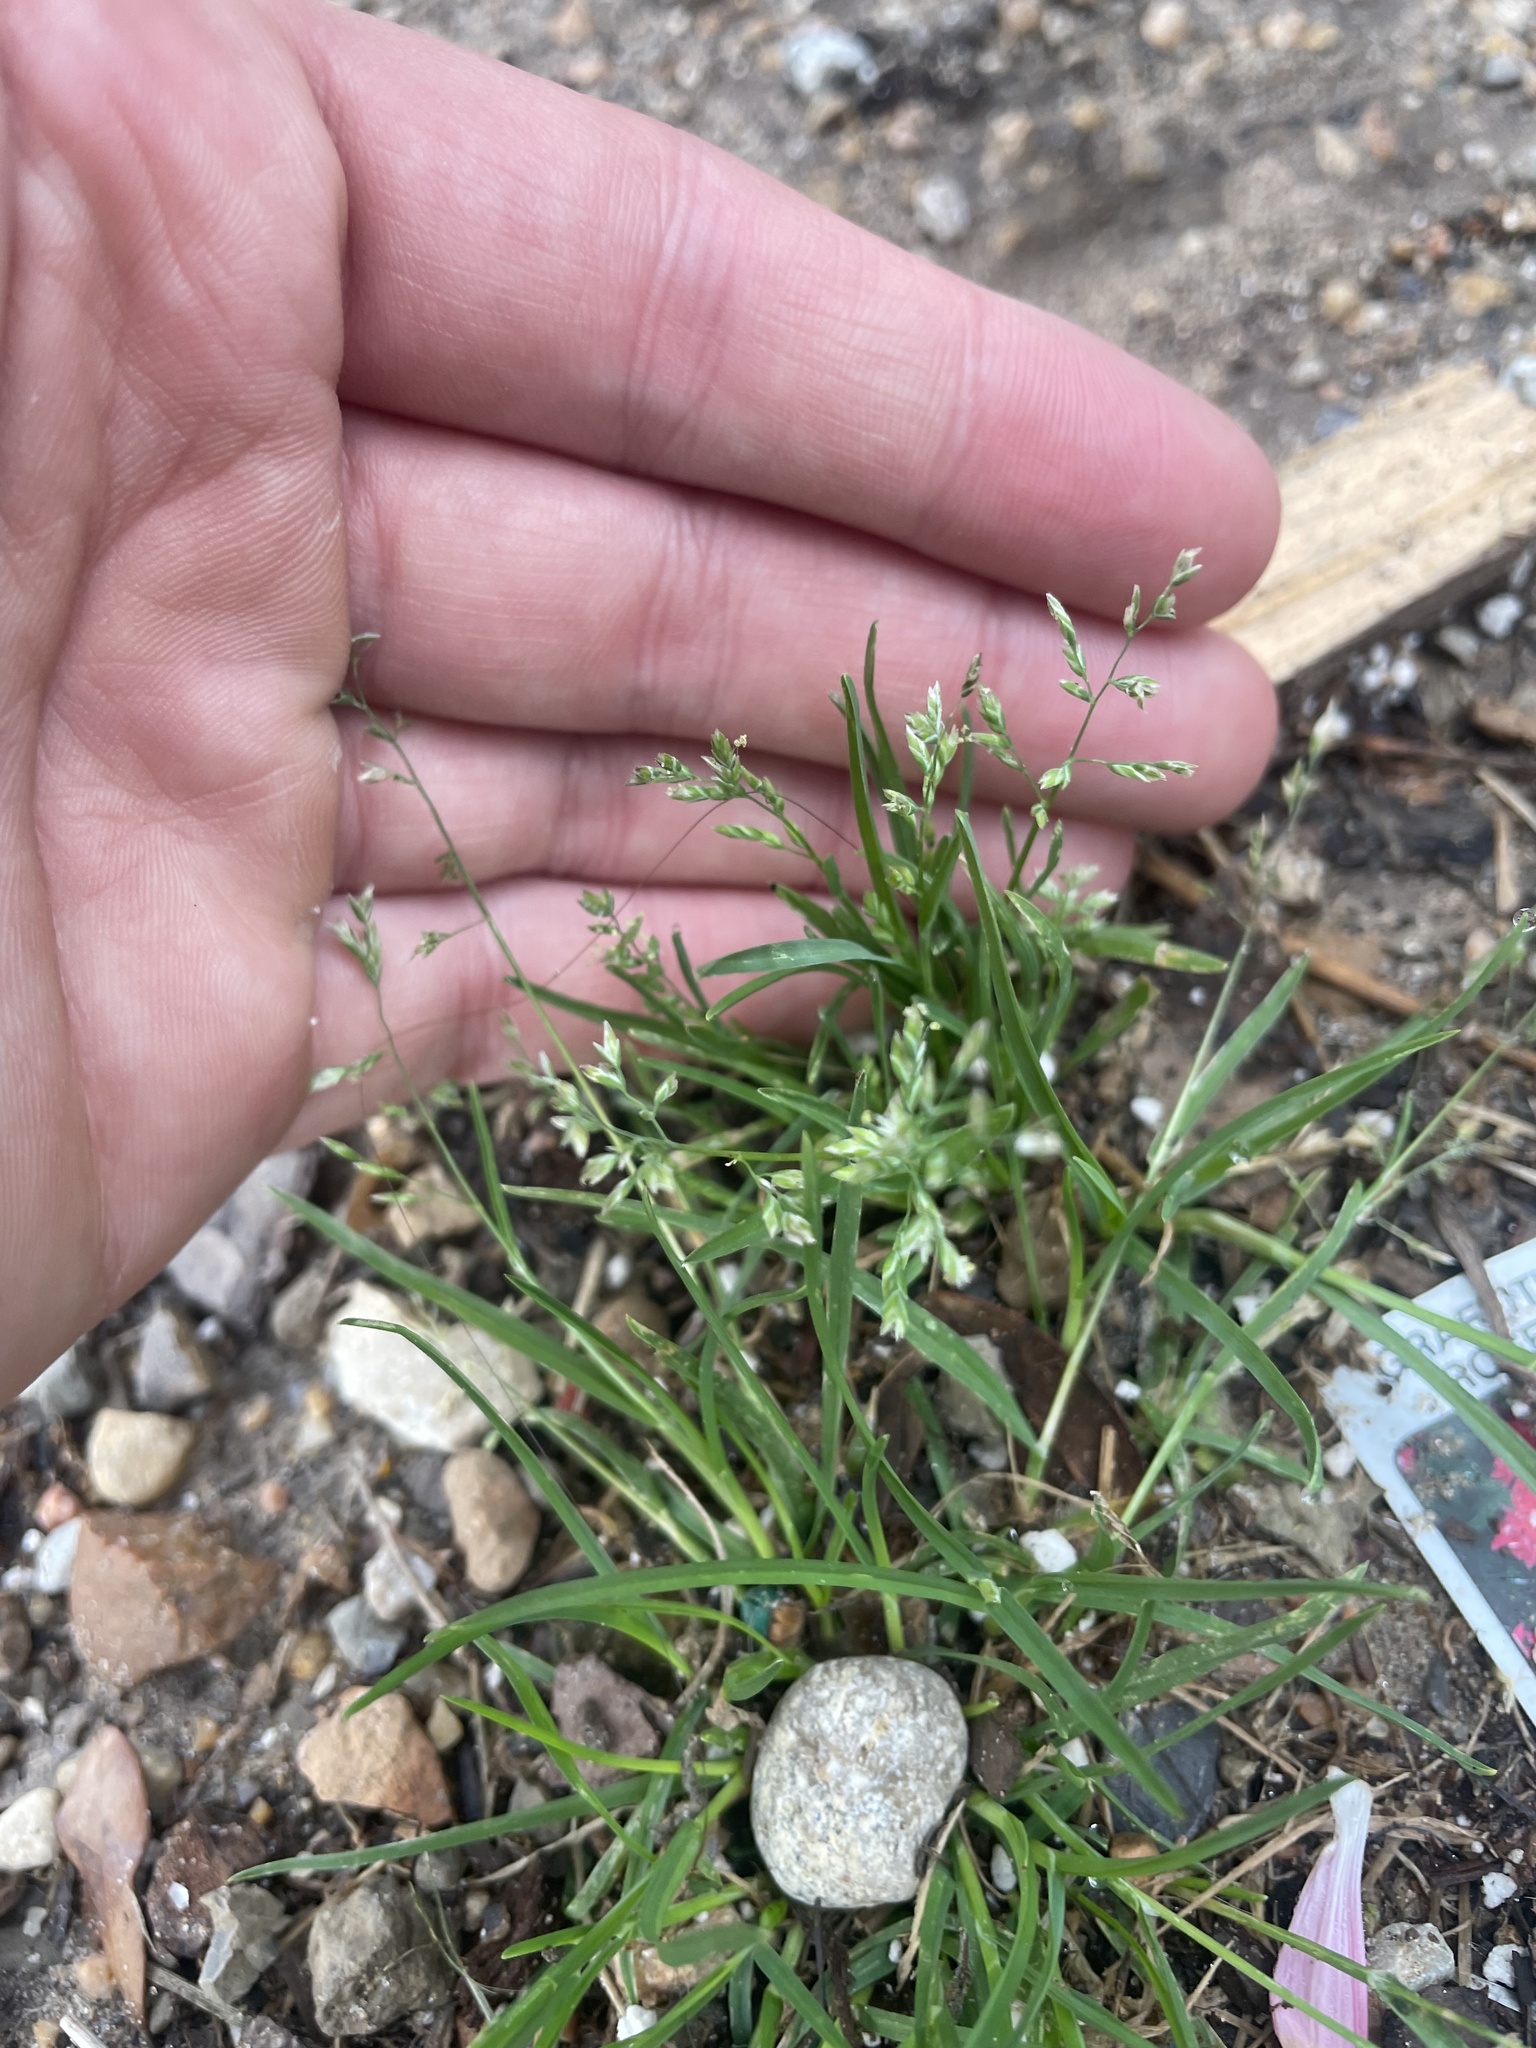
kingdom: Plantae
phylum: Tracheophyta
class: Liliopsida
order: Poales
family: Poaceae
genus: Poa
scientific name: Poa annua
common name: Annual bluegrass
